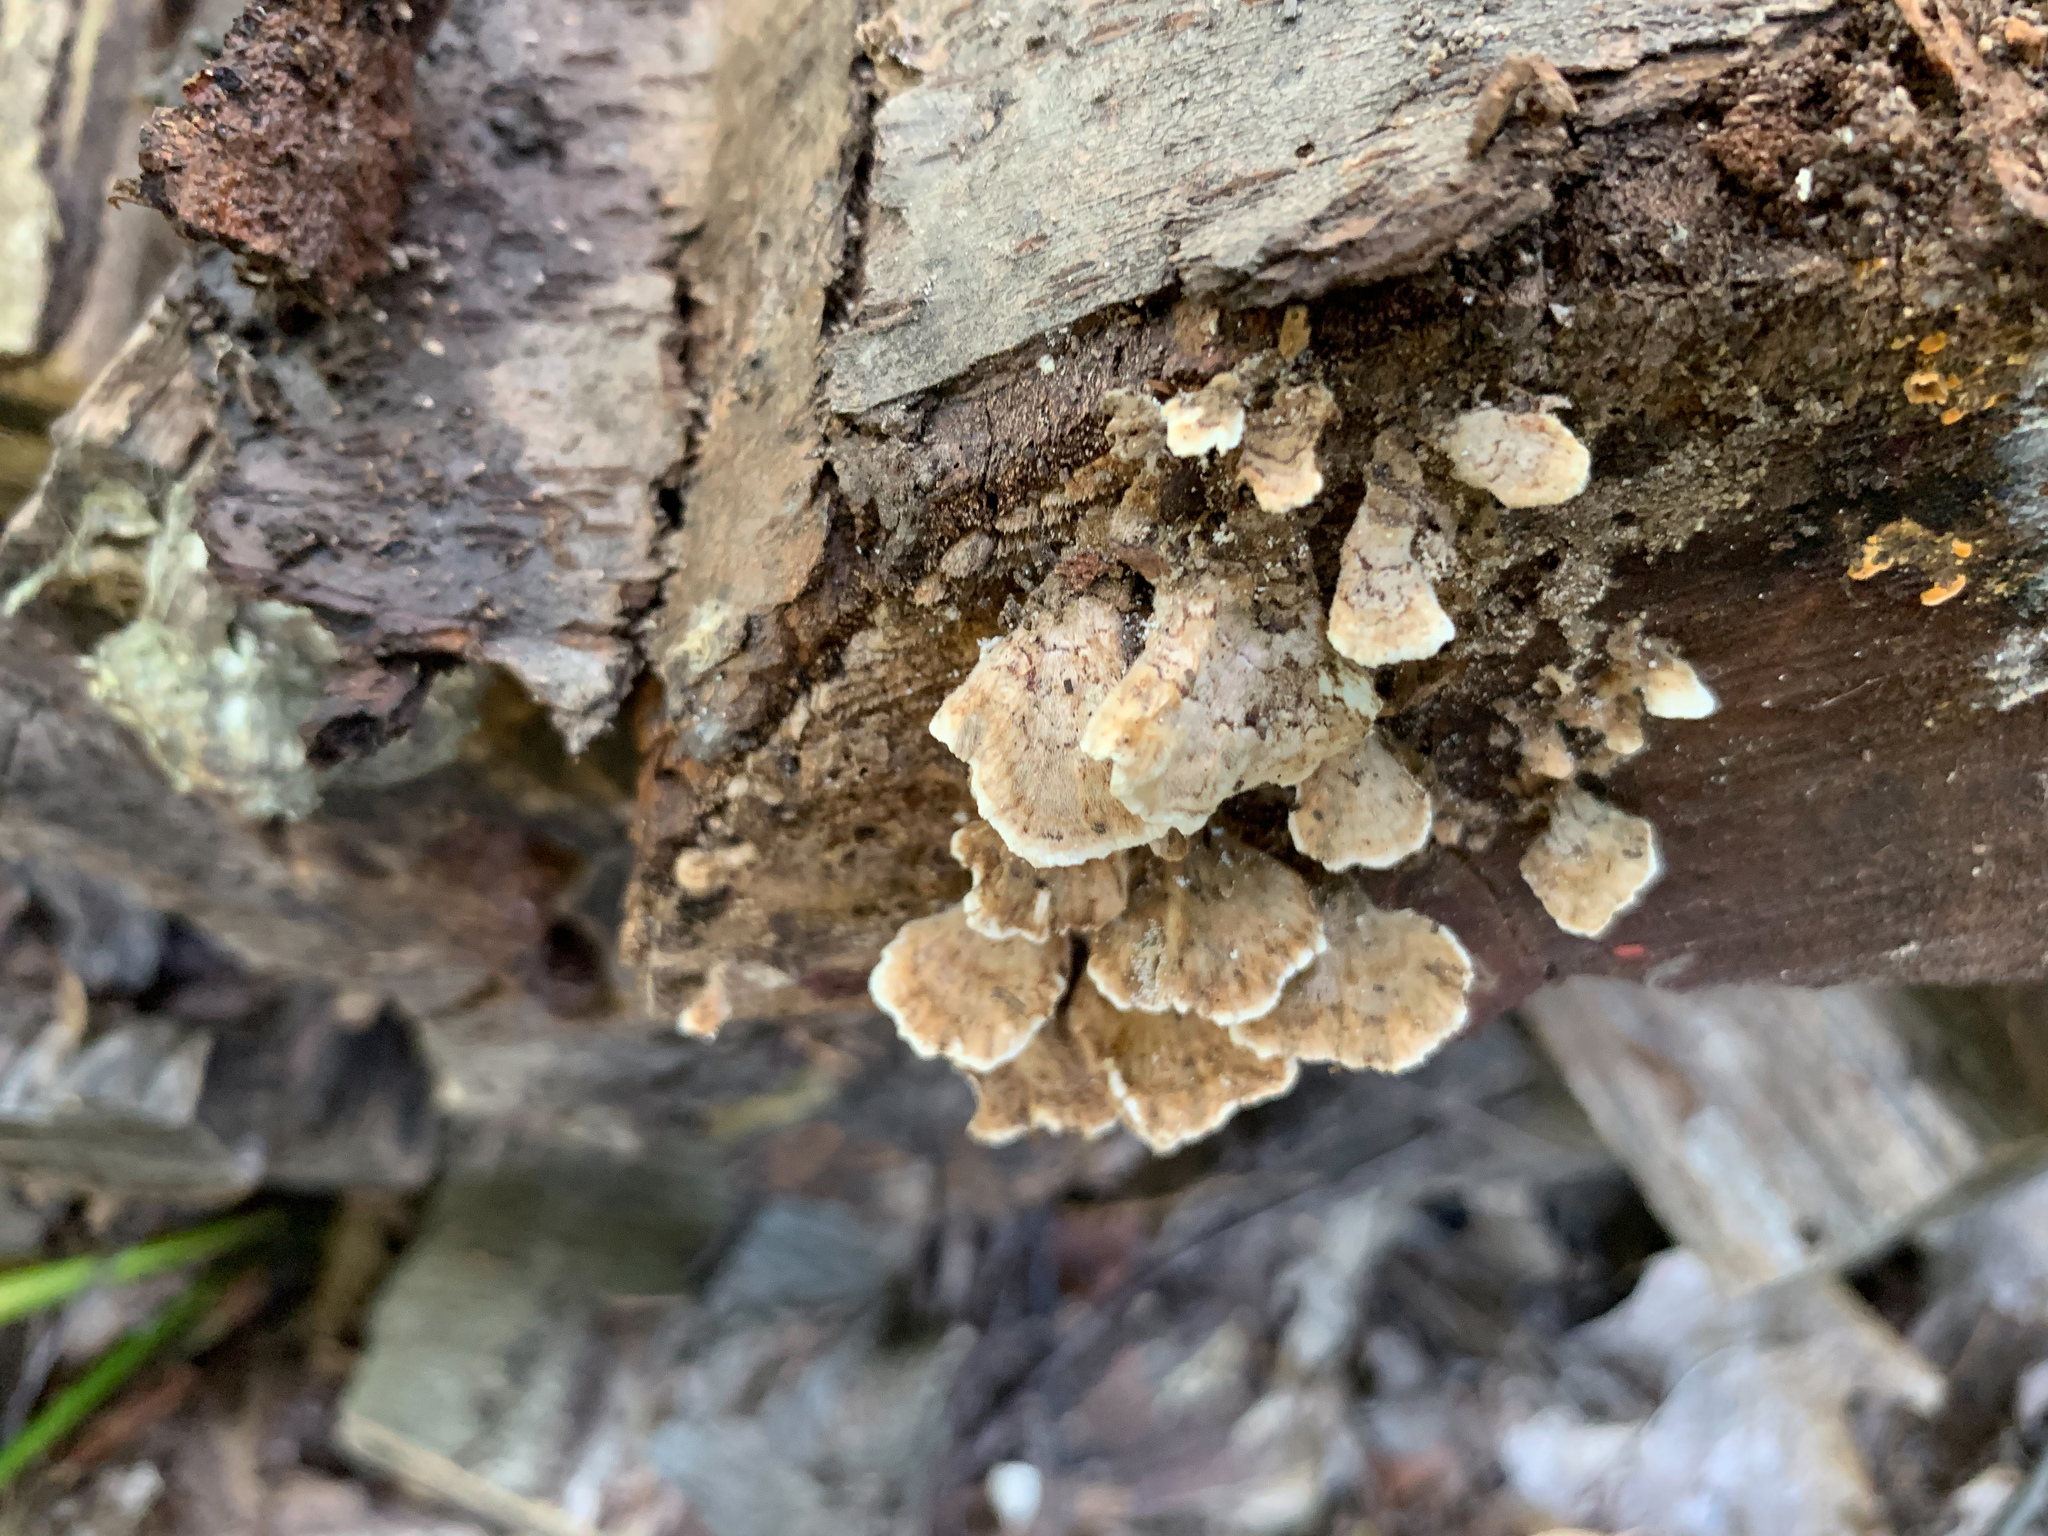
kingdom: Fungi
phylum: Basidiomycota
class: Agaricomycetes
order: Hymenochaetales
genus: Trichaptum
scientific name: Trichaptum biforme
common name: Violet-toothed polypore
